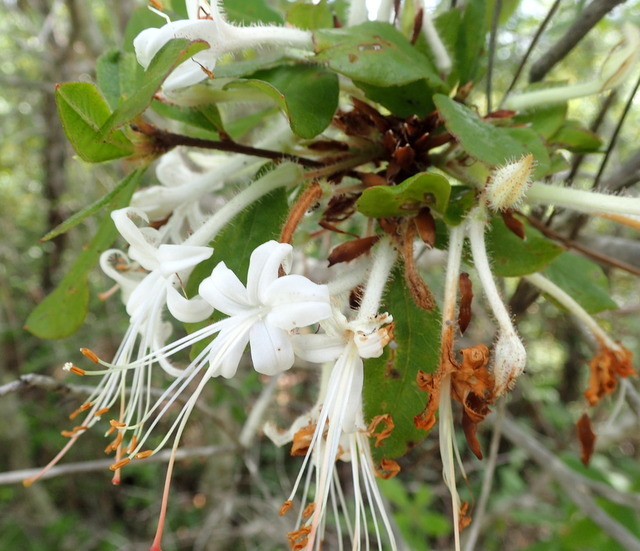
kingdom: Plantae
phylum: Tracheophyta
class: Magnoliopsida
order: Ericales
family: Ericaceae
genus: Rhododendron
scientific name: Rhododendron serrulatum
